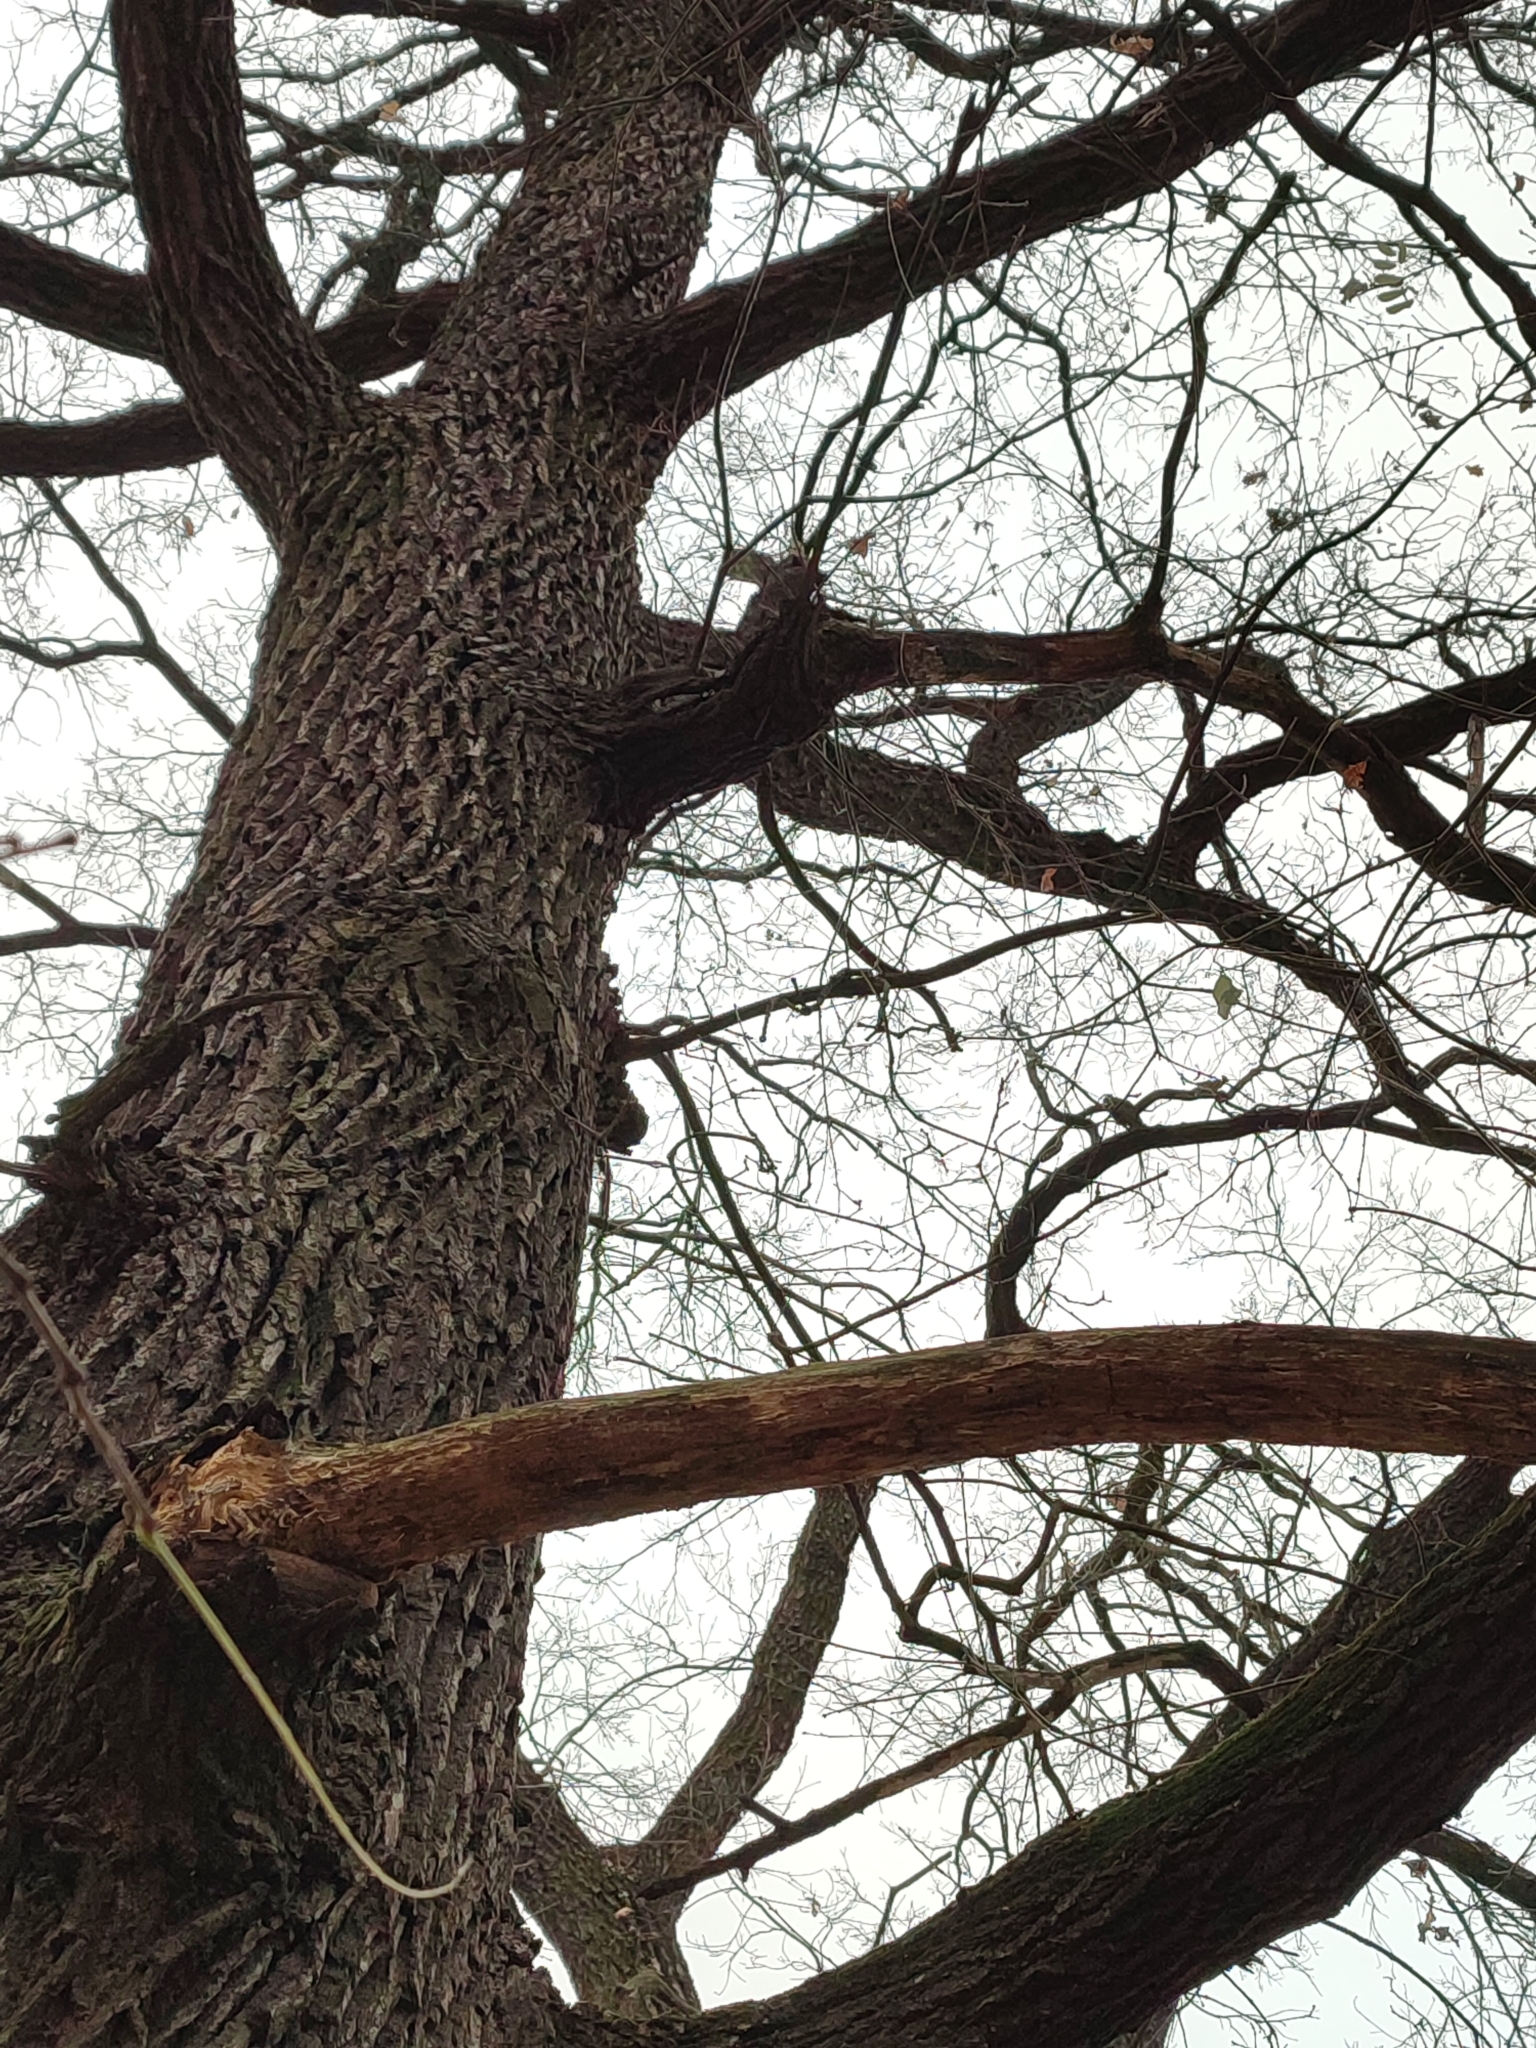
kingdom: Plantae
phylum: Tracheophyta
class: Magnoliopsida
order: Fagales
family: Fagaceae
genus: Quercus
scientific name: Quercus robur
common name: Pedunculate oak
